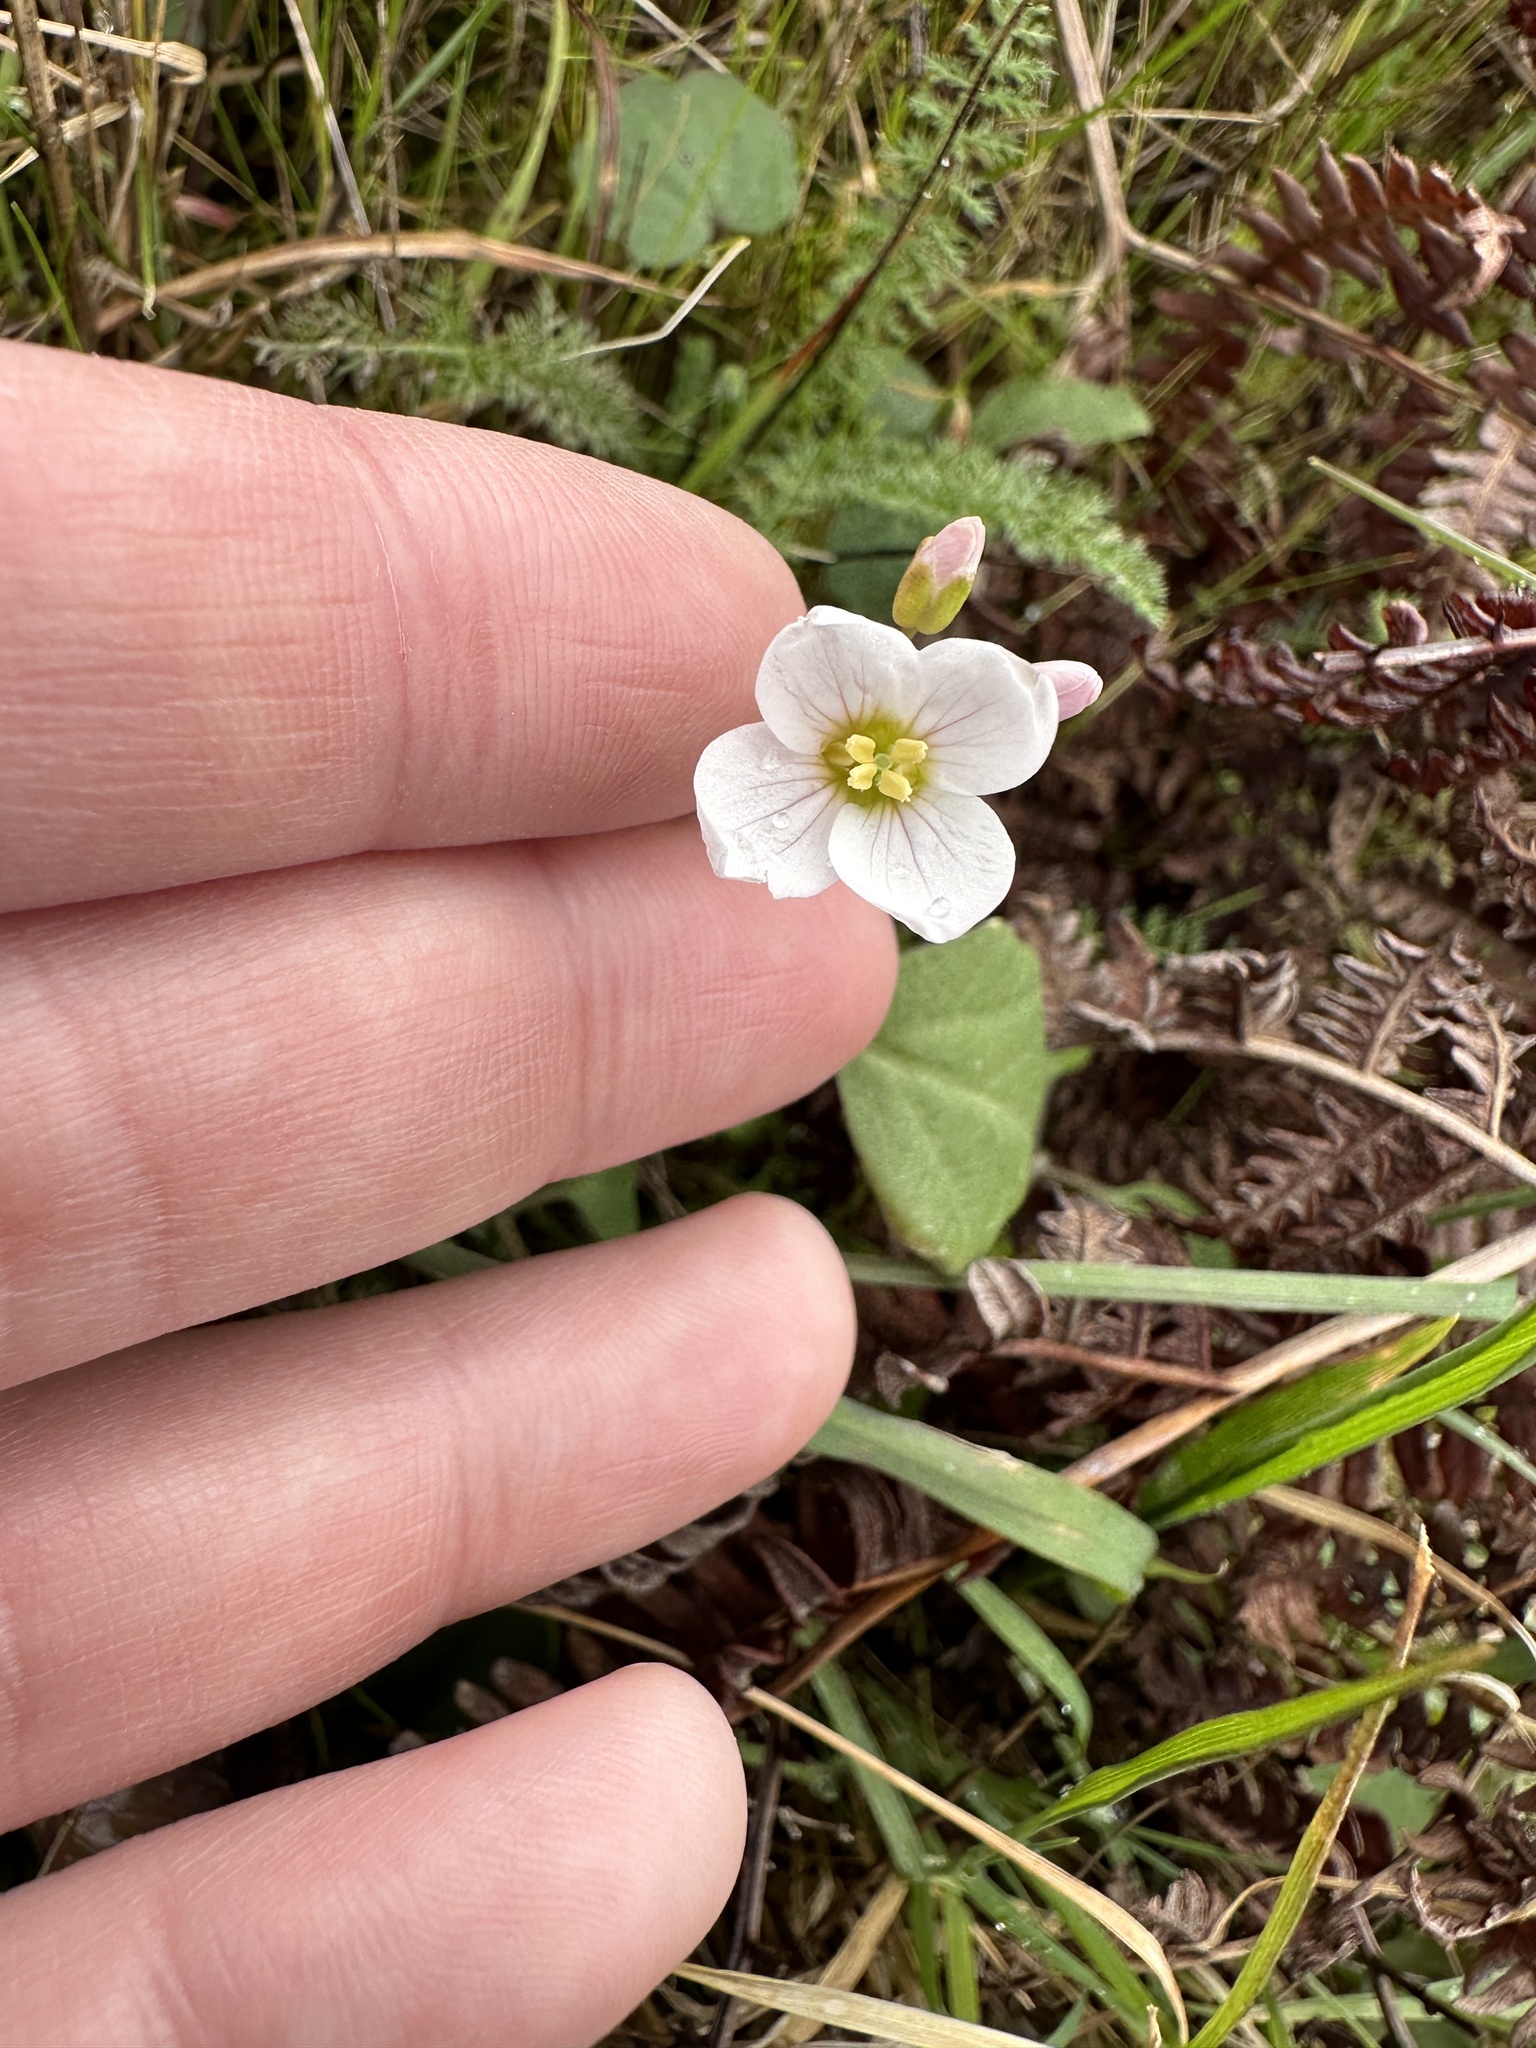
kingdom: Plantae
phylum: Tracheophyta
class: Magnoliopsida
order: Brassicales
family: Brassicaceae
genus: Cardamine
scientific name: Cardamine californica
